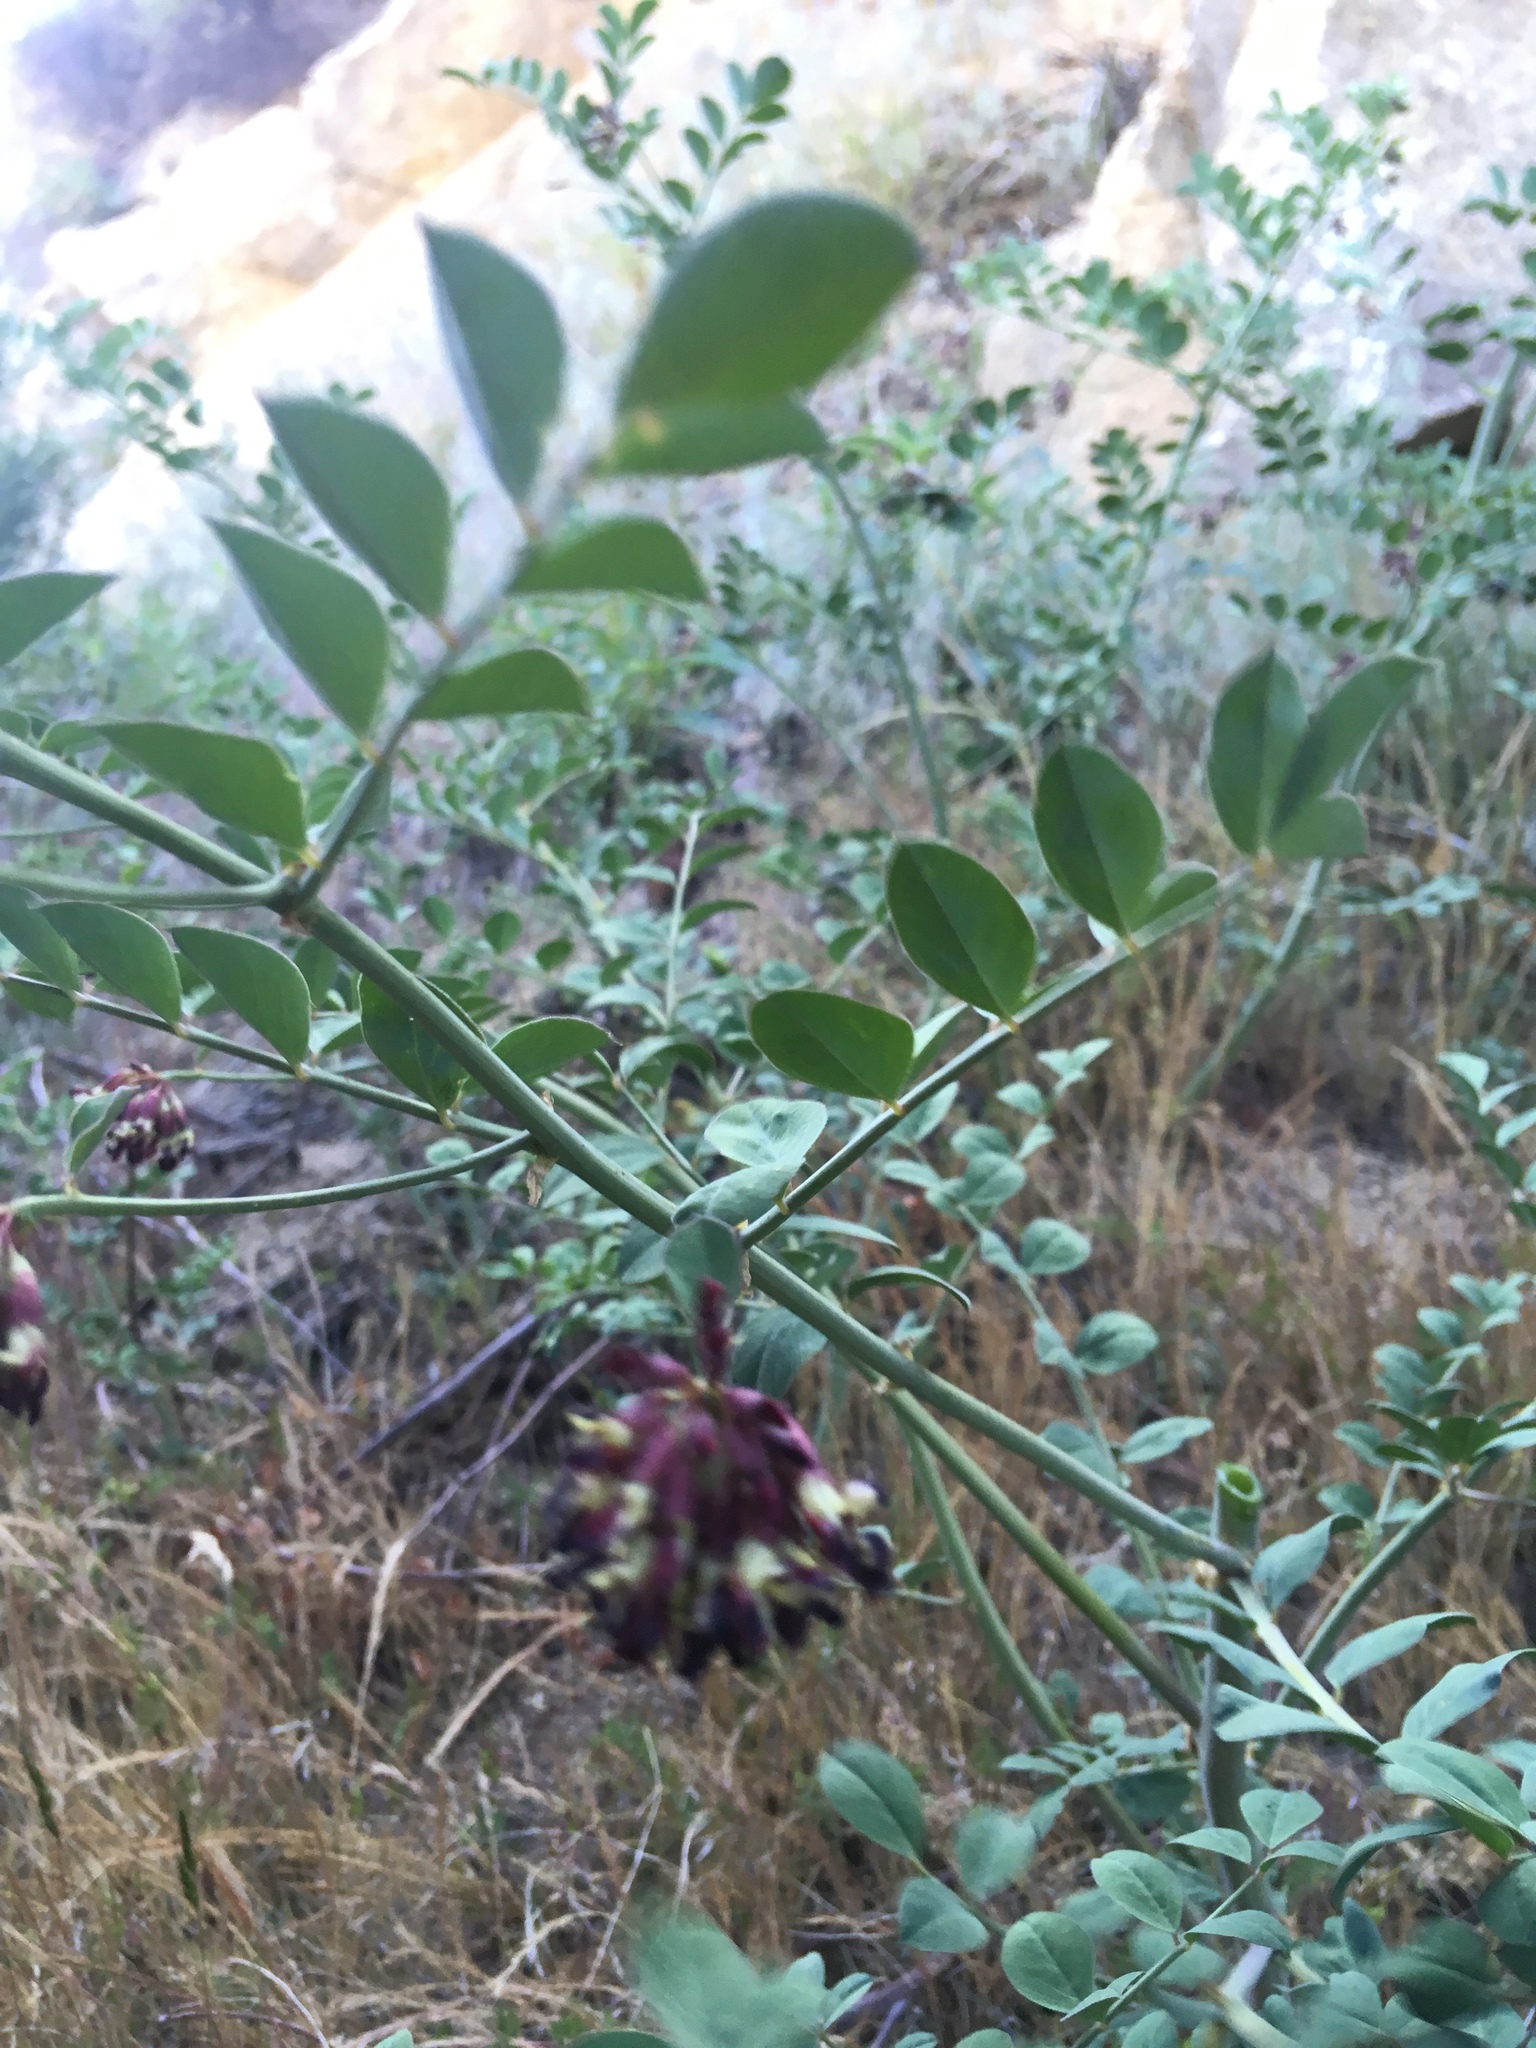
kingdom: Plantae
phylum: Tracheophyta
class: Magnoliopsida
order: Fabales
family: Fabaceae
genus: Hosackia
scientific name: Hosackia crassifolia
